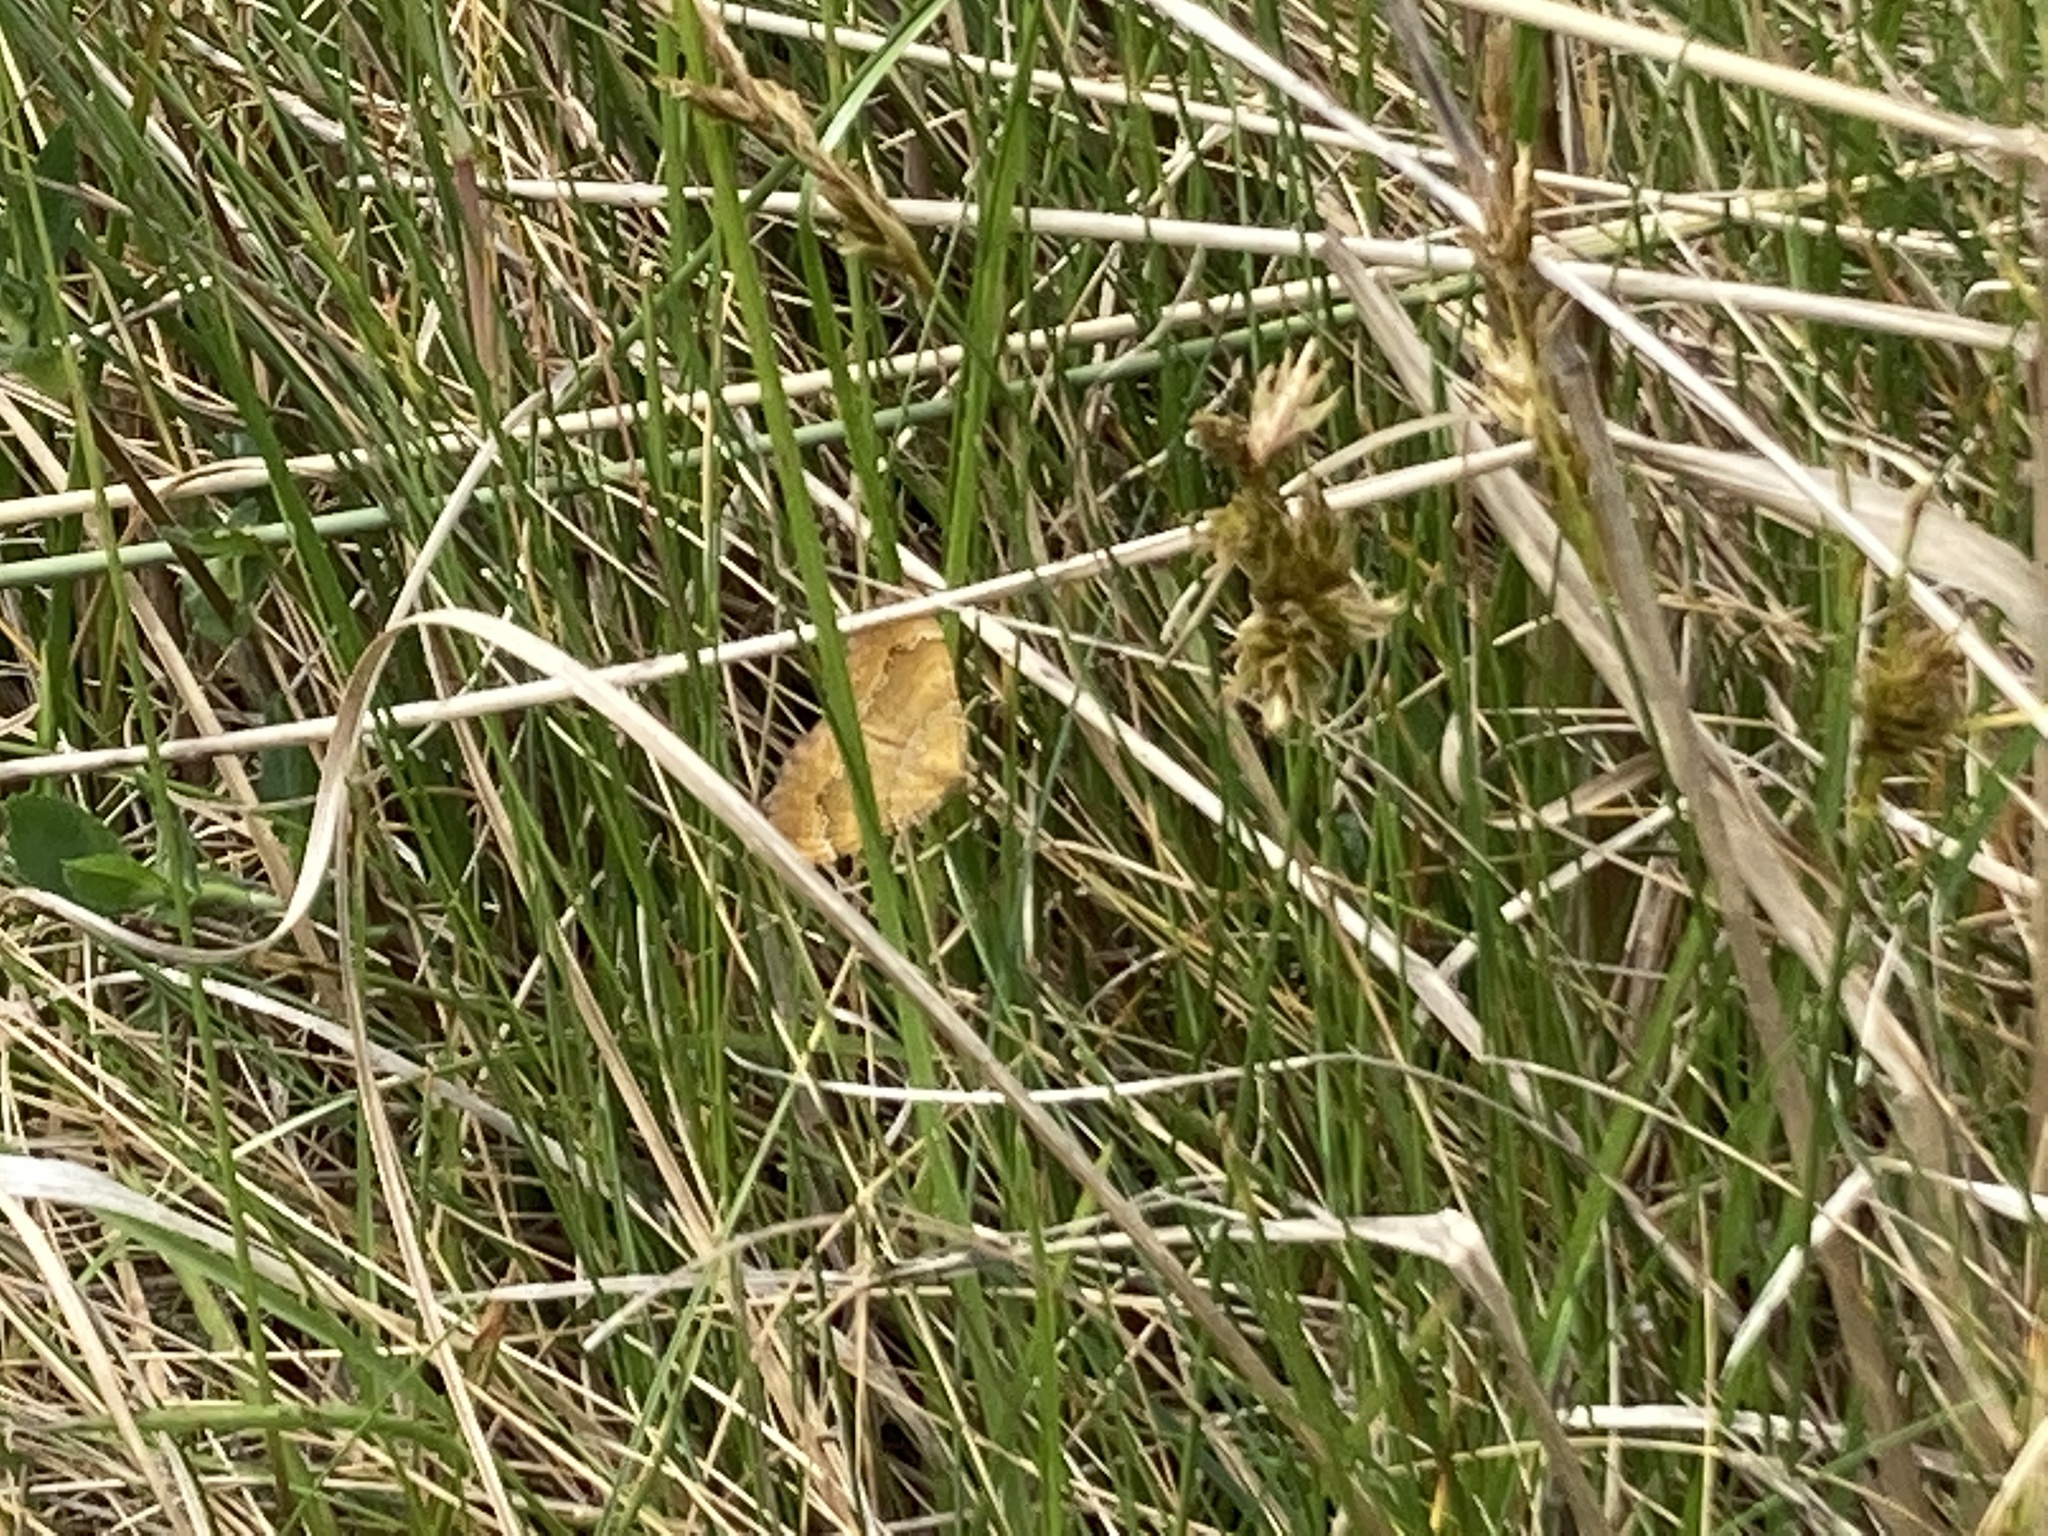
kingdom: Animalia
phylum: Arthropoda
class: Insecta
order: Lepidoptera
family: Geometridae
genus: Camptogramma
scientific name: Camptogramma bilineata
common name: Yellow shell
